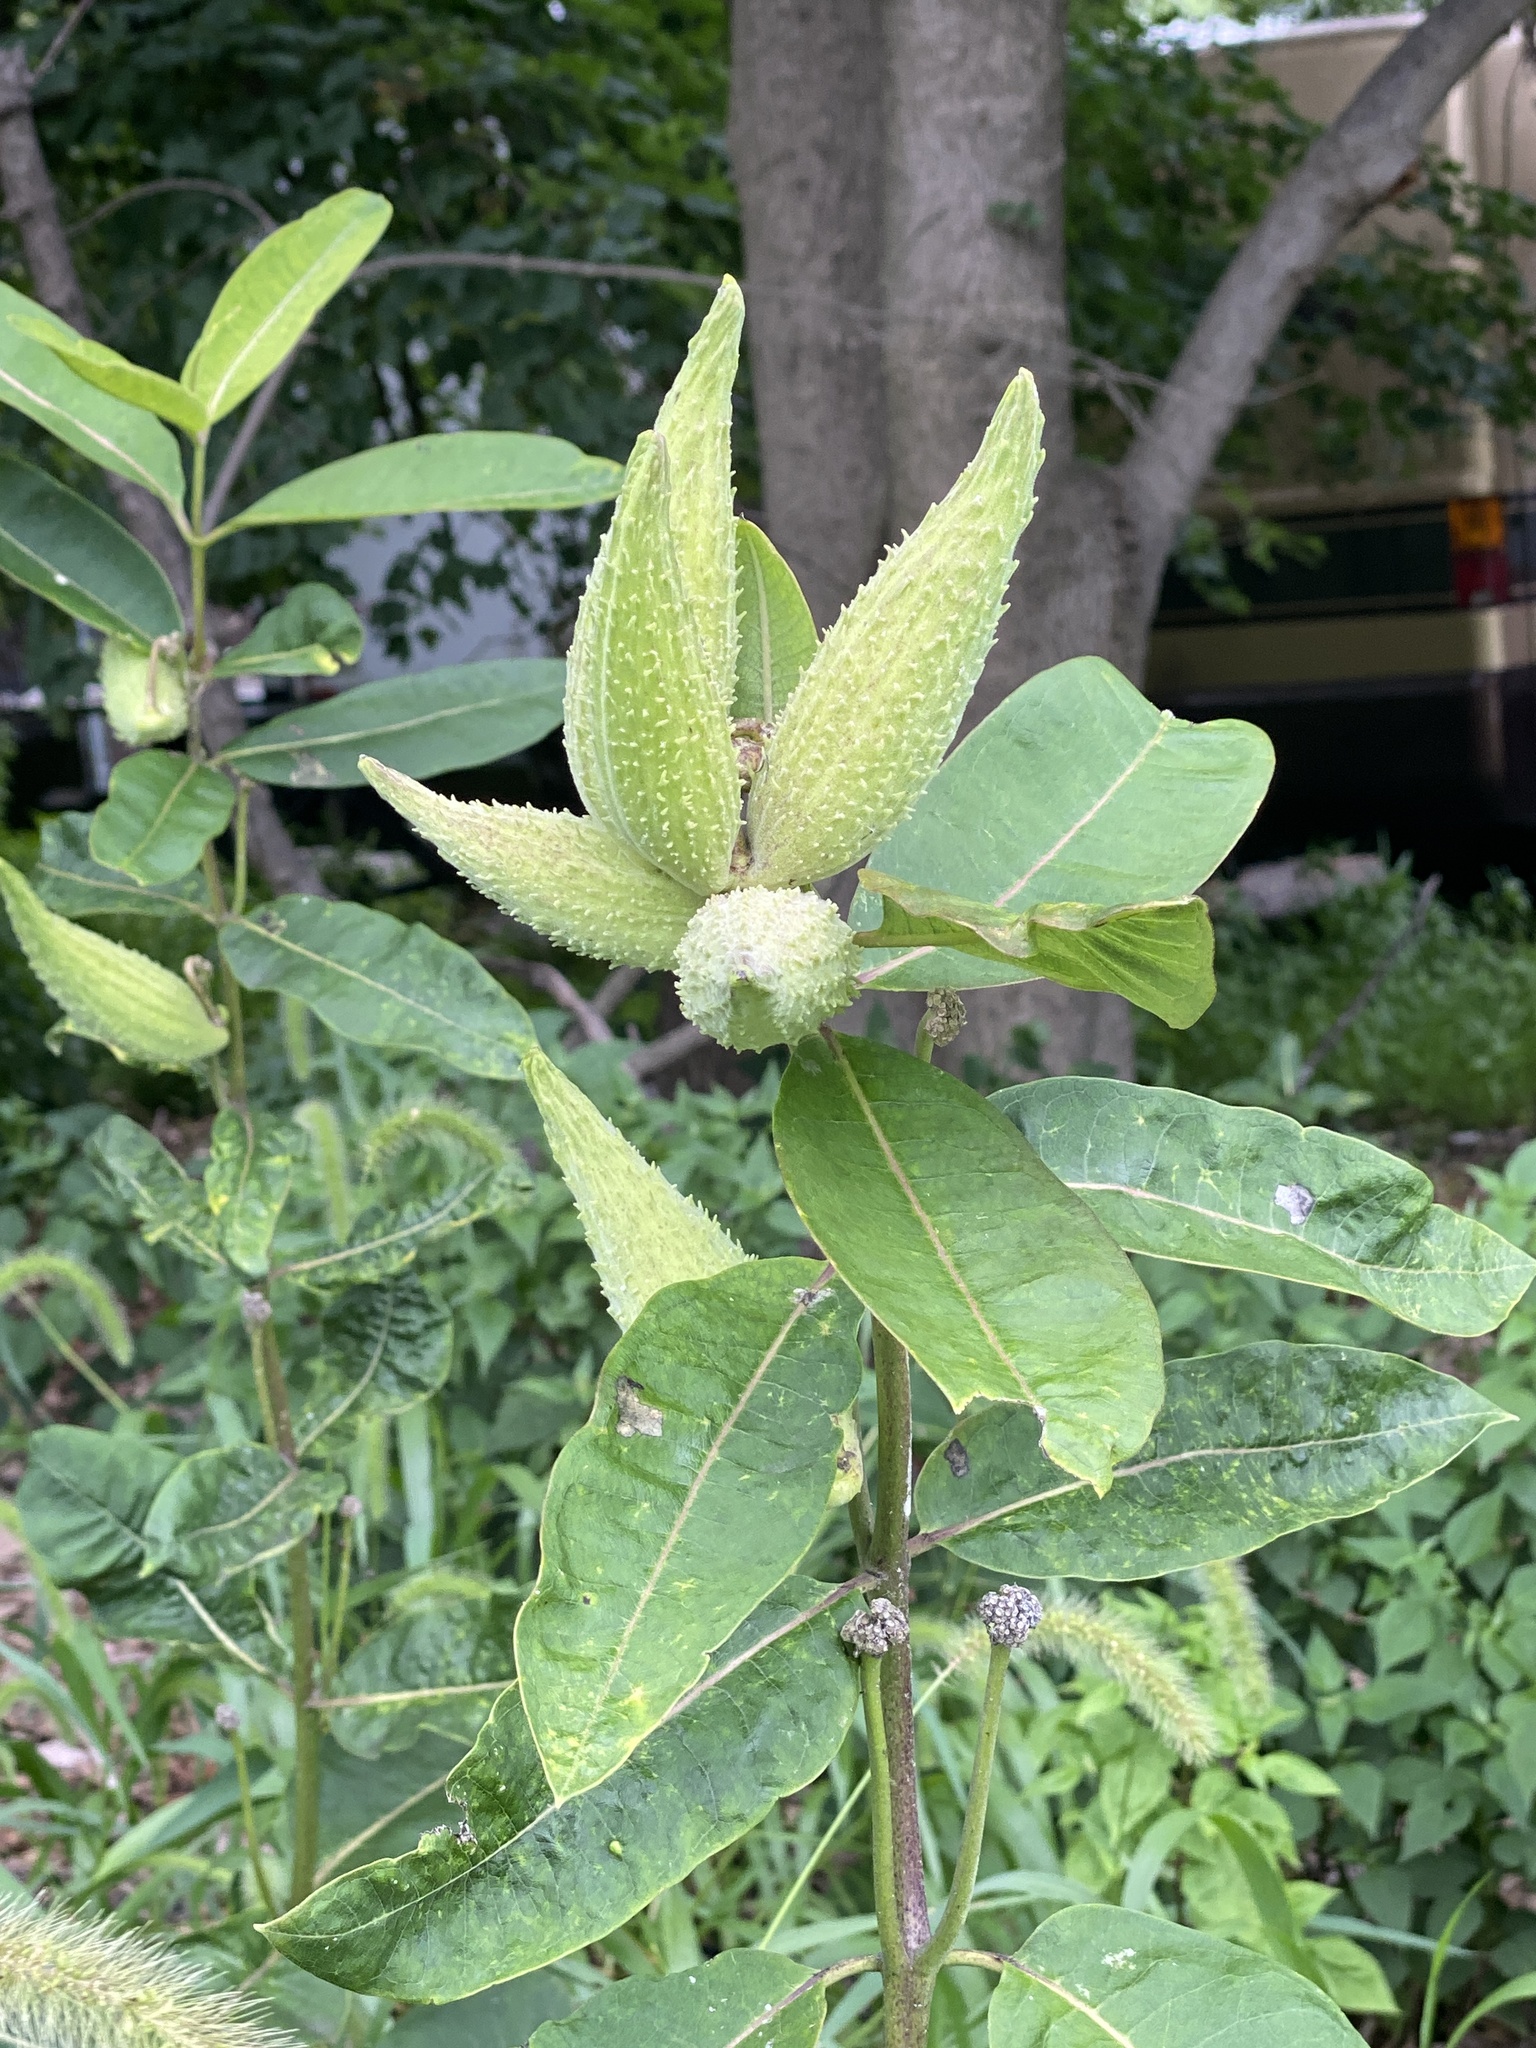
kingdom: Plantae
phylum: Tracheophyta
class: Magnoliopsida
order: Gentianales
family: Apocynaceae
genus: Asclepias
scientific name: Asclepias syriaca
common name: Common milkweed
